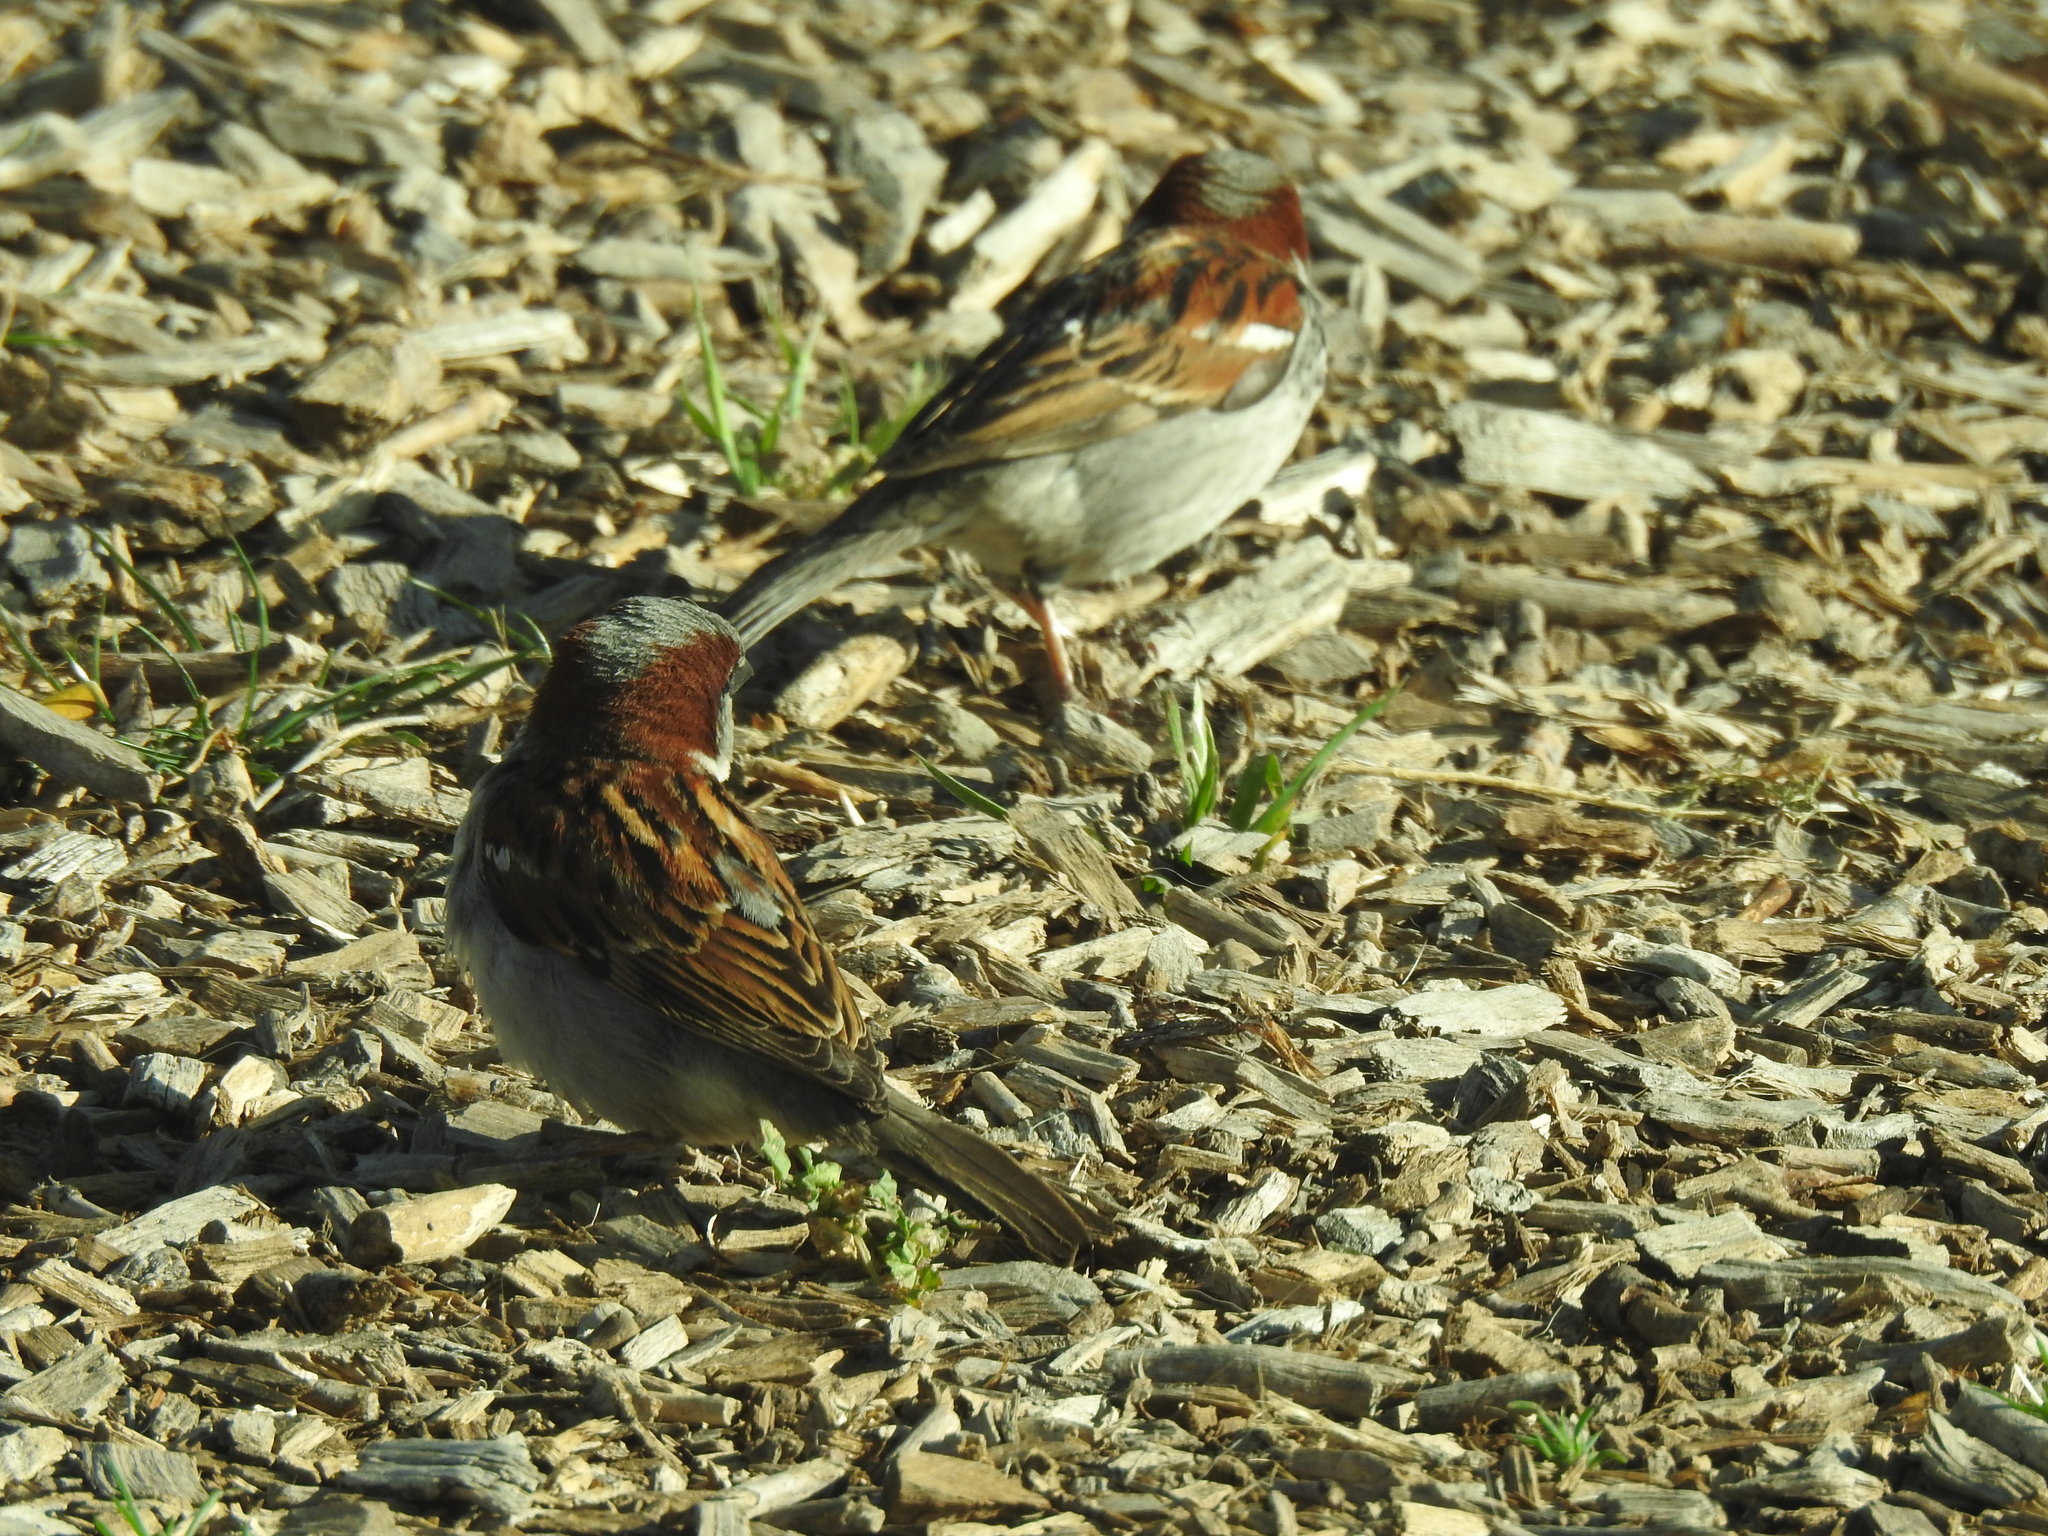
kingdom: Animalia
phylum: Chordata
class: Aves
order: Passeriformes
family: Passeridae
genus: Passer
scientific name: Passer domesticus
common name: House sparrow
